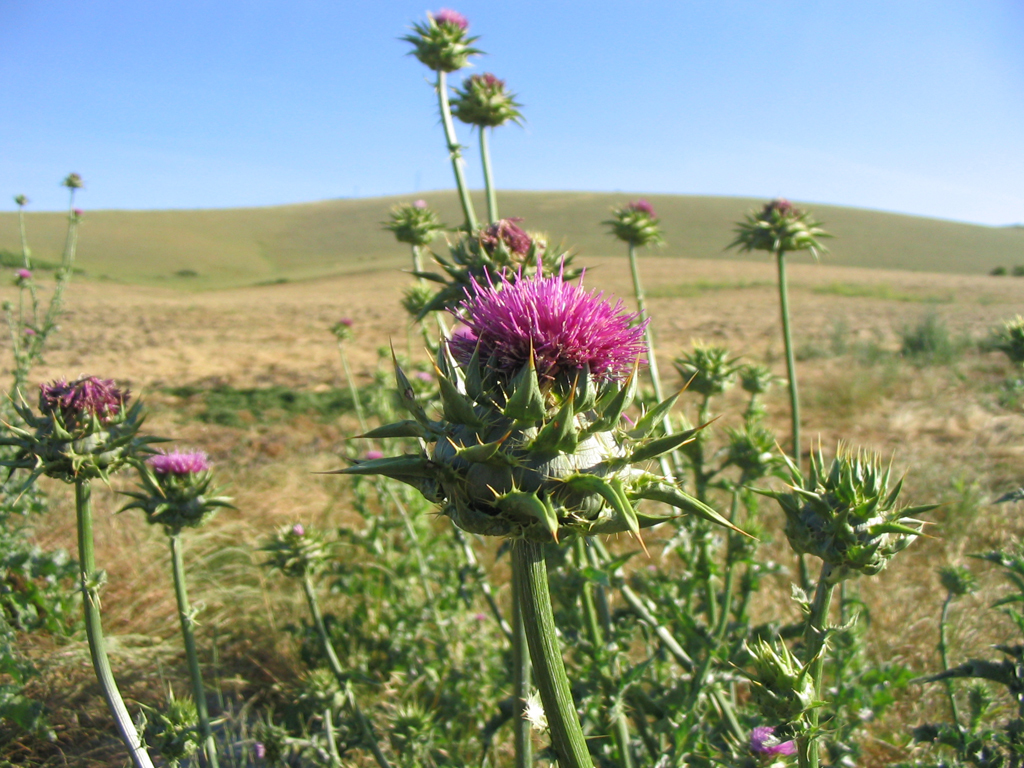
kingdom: Plantae
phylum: Tracheophyta
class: Magnoliopsida
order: Asterales
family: Asteraceae
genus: Silybum
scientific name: Silybum marianum
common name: Milk thistle
